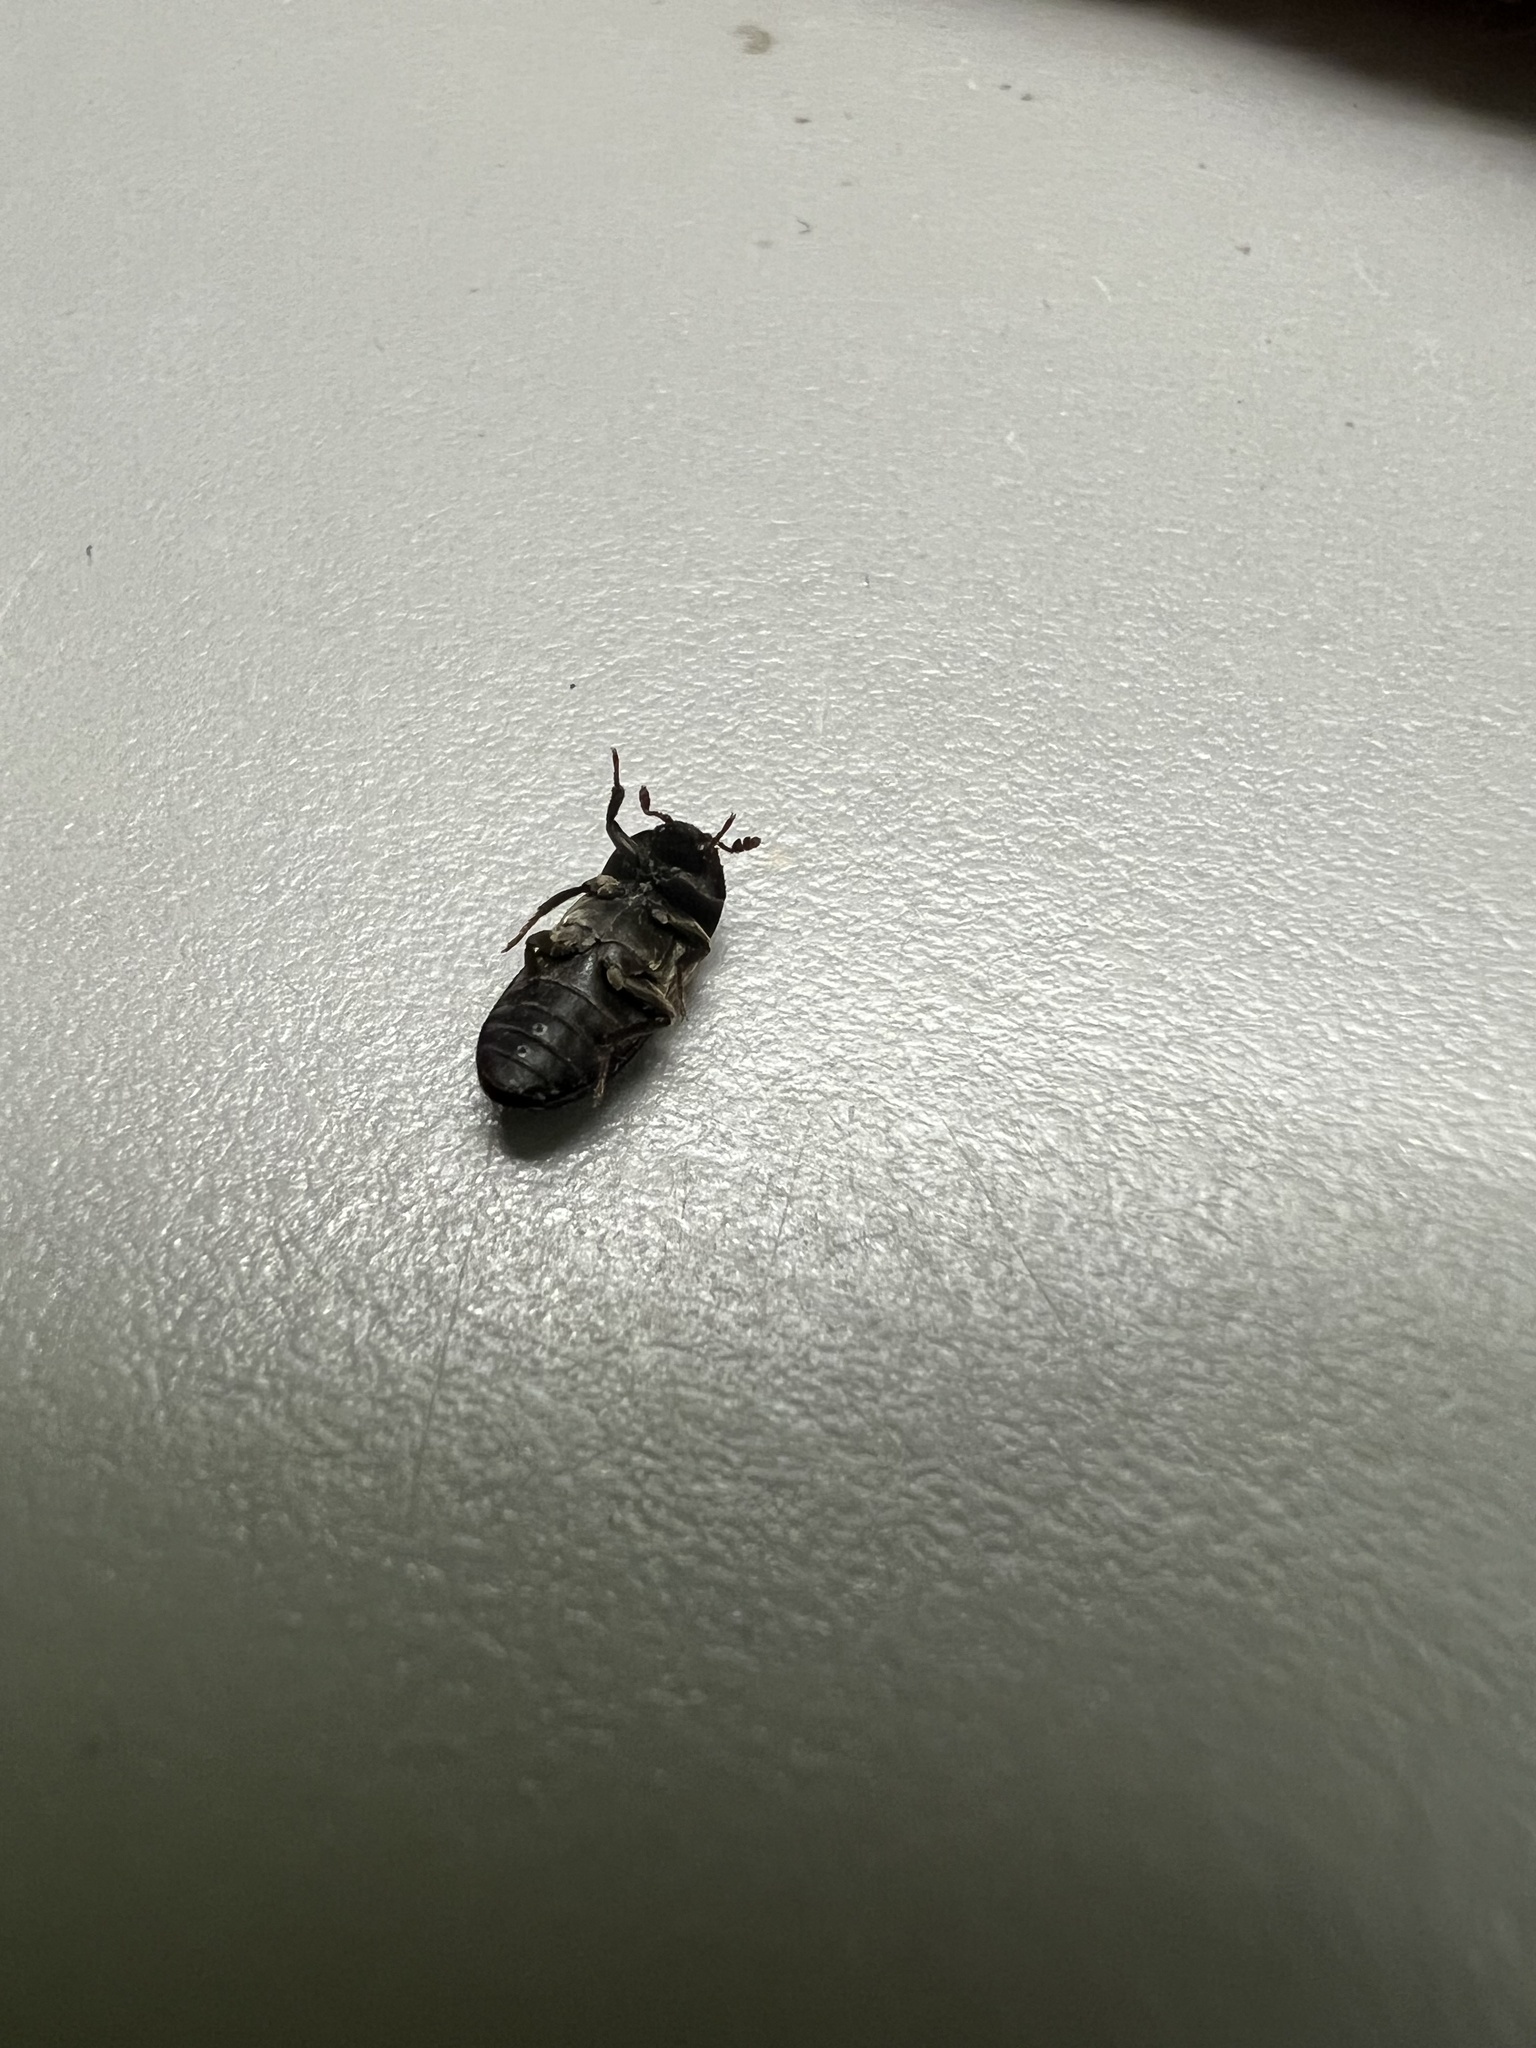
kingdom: Animalia
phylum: Arthropoda
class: Insecta
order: Coleoptera
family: Dermestidae
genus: Dermestes
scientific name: Dermestes lardarius
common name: Larder beetle
